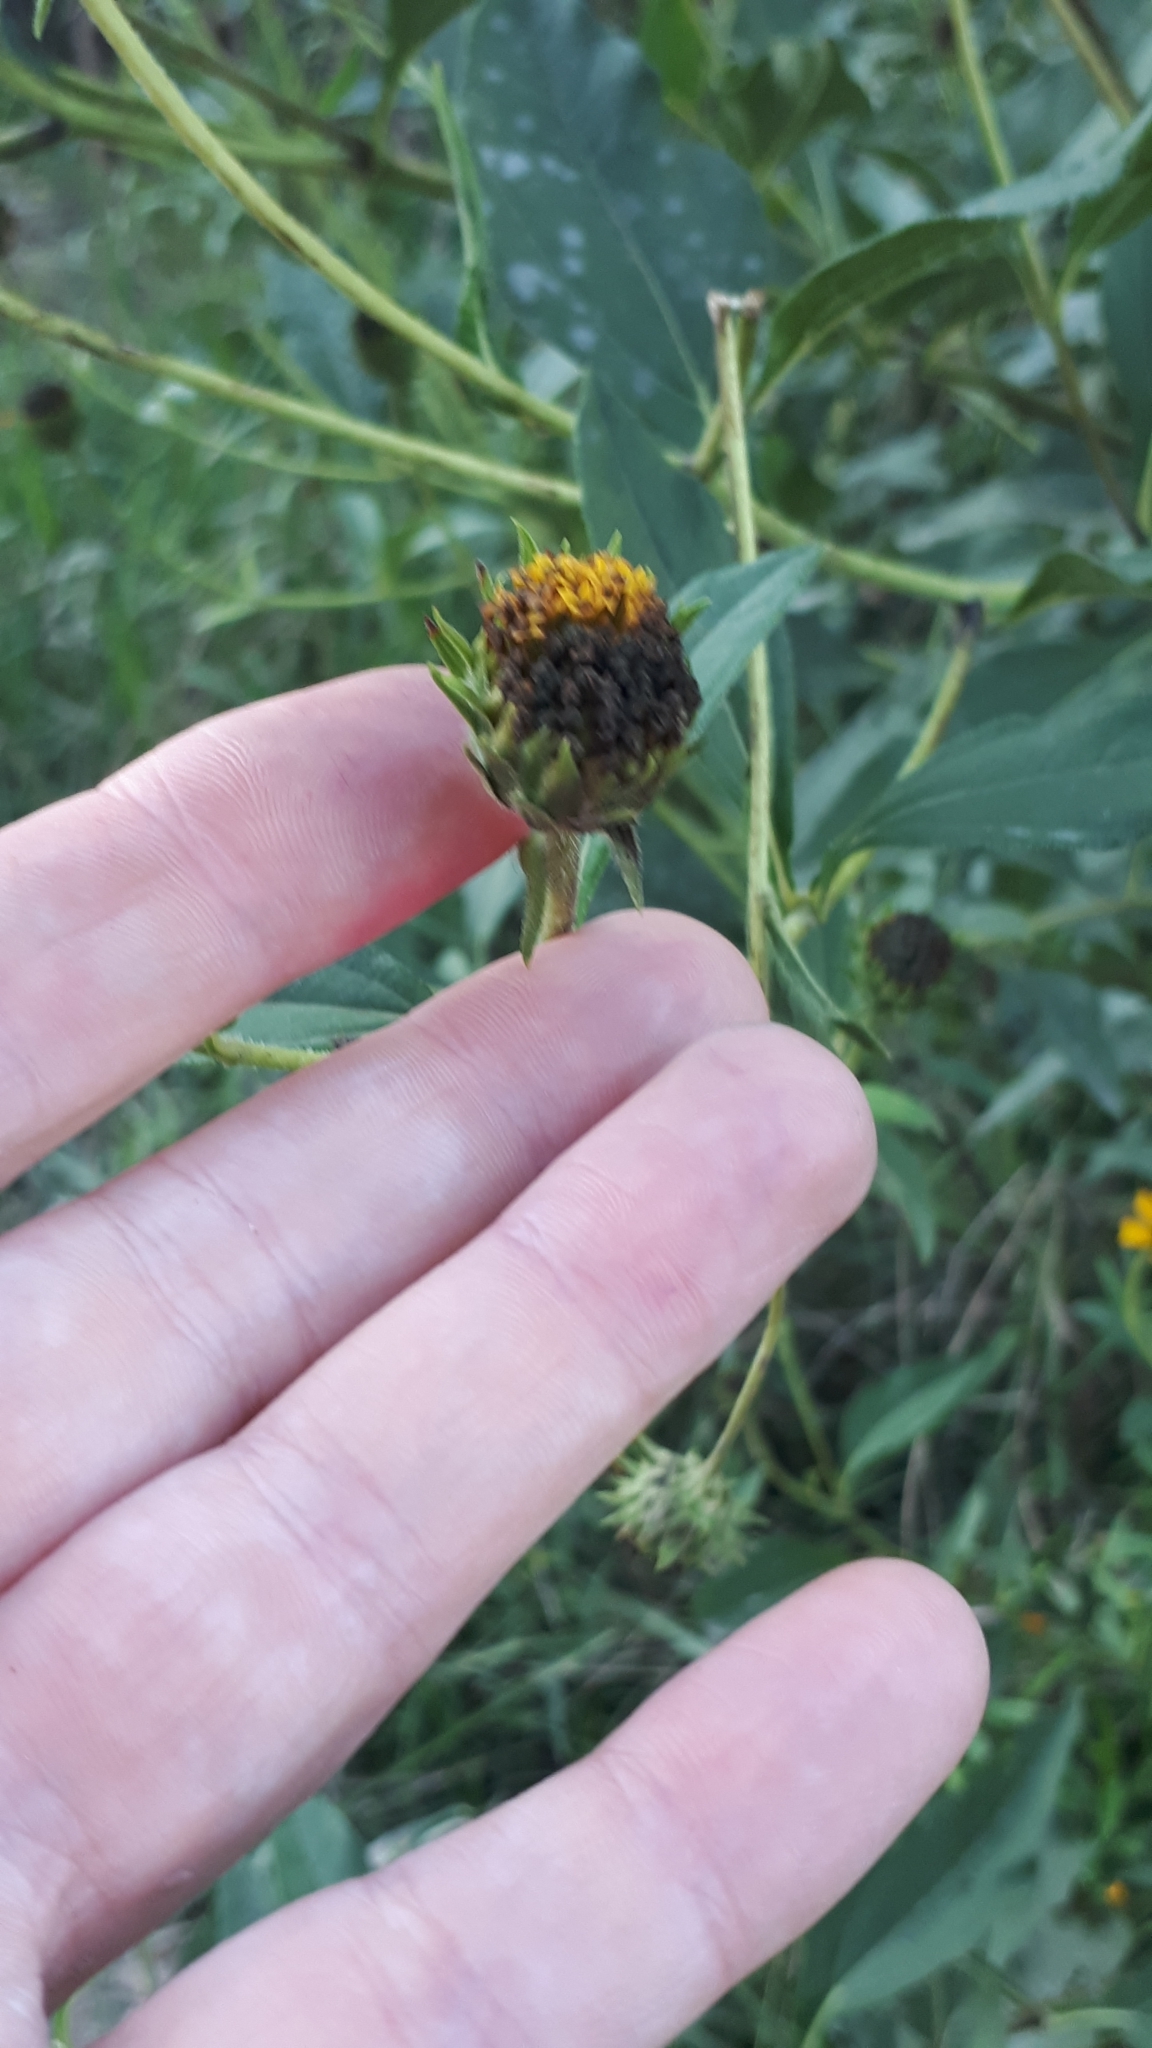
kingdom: Plantae
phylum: Tracheophyta
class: Magnoliopsida
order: Asterales
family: Asteraceae
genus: Helianthus
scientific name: Helianthus tuberosus
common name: Jerusalem artichoke
